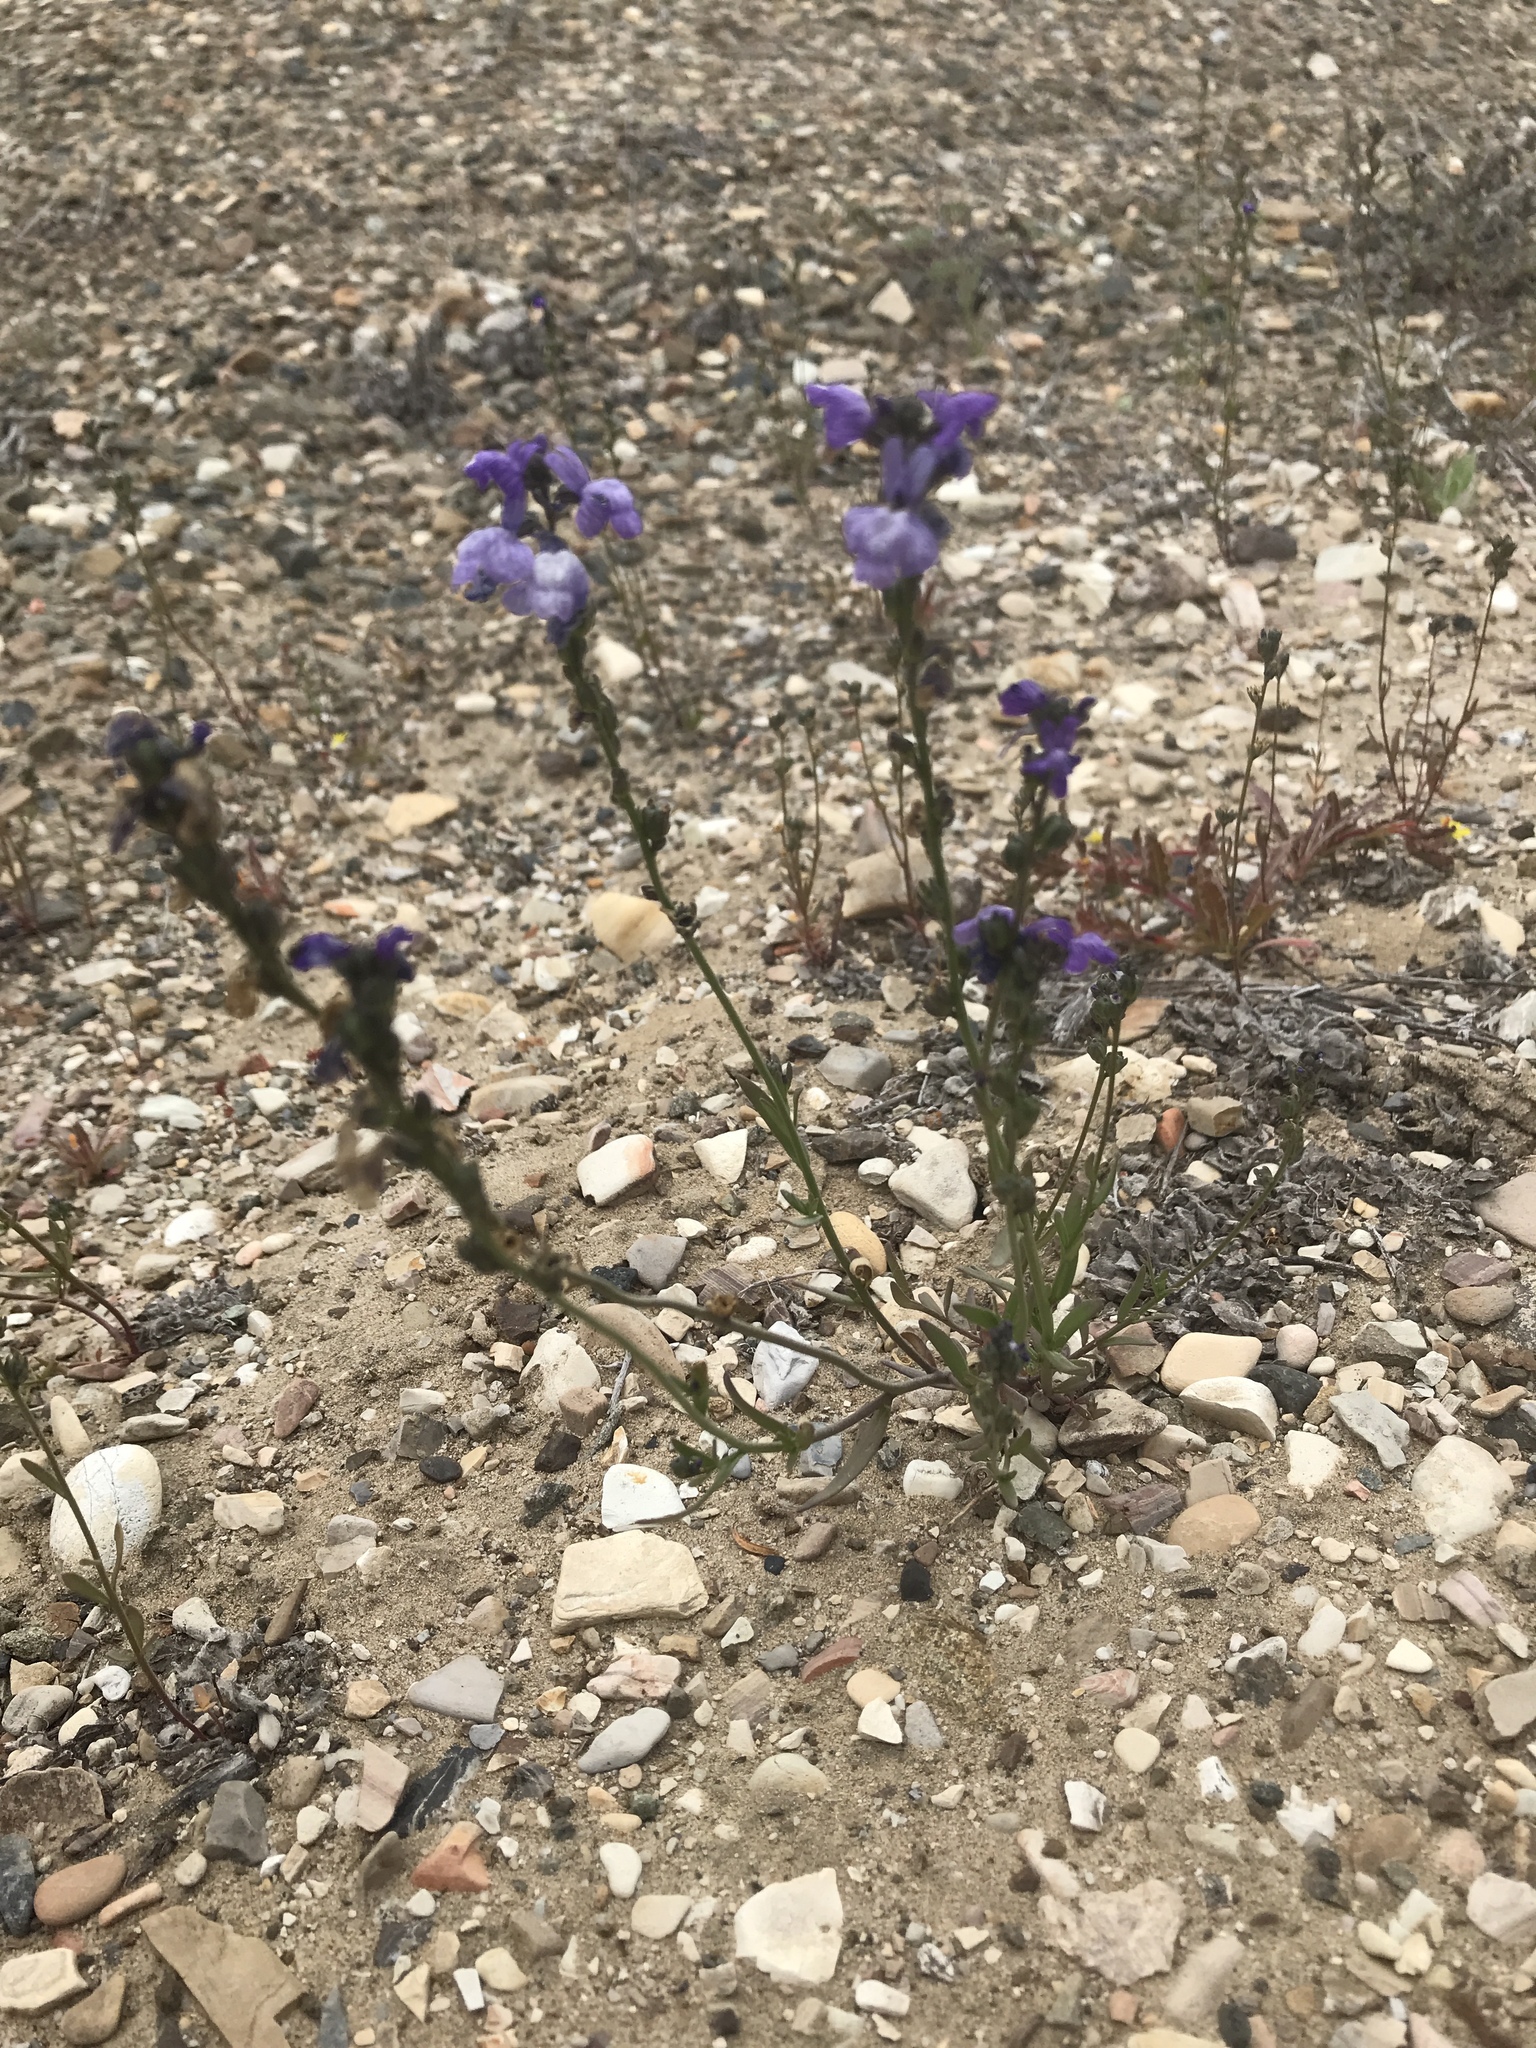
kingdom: Plantae
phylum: Tracheophyta
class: Magnoliopsida
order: Lamiales
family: Plantaginaceae
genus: Nuttallanthus
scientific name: Nuttallanthus texanus
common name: Texas toadflax
